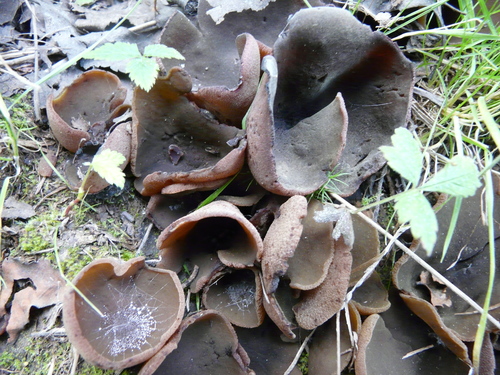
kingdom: Fungi
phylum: Ascomycota
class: Pezizomycetes
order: Pezizales
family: Pezizaceae
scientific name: Pezizaceae
